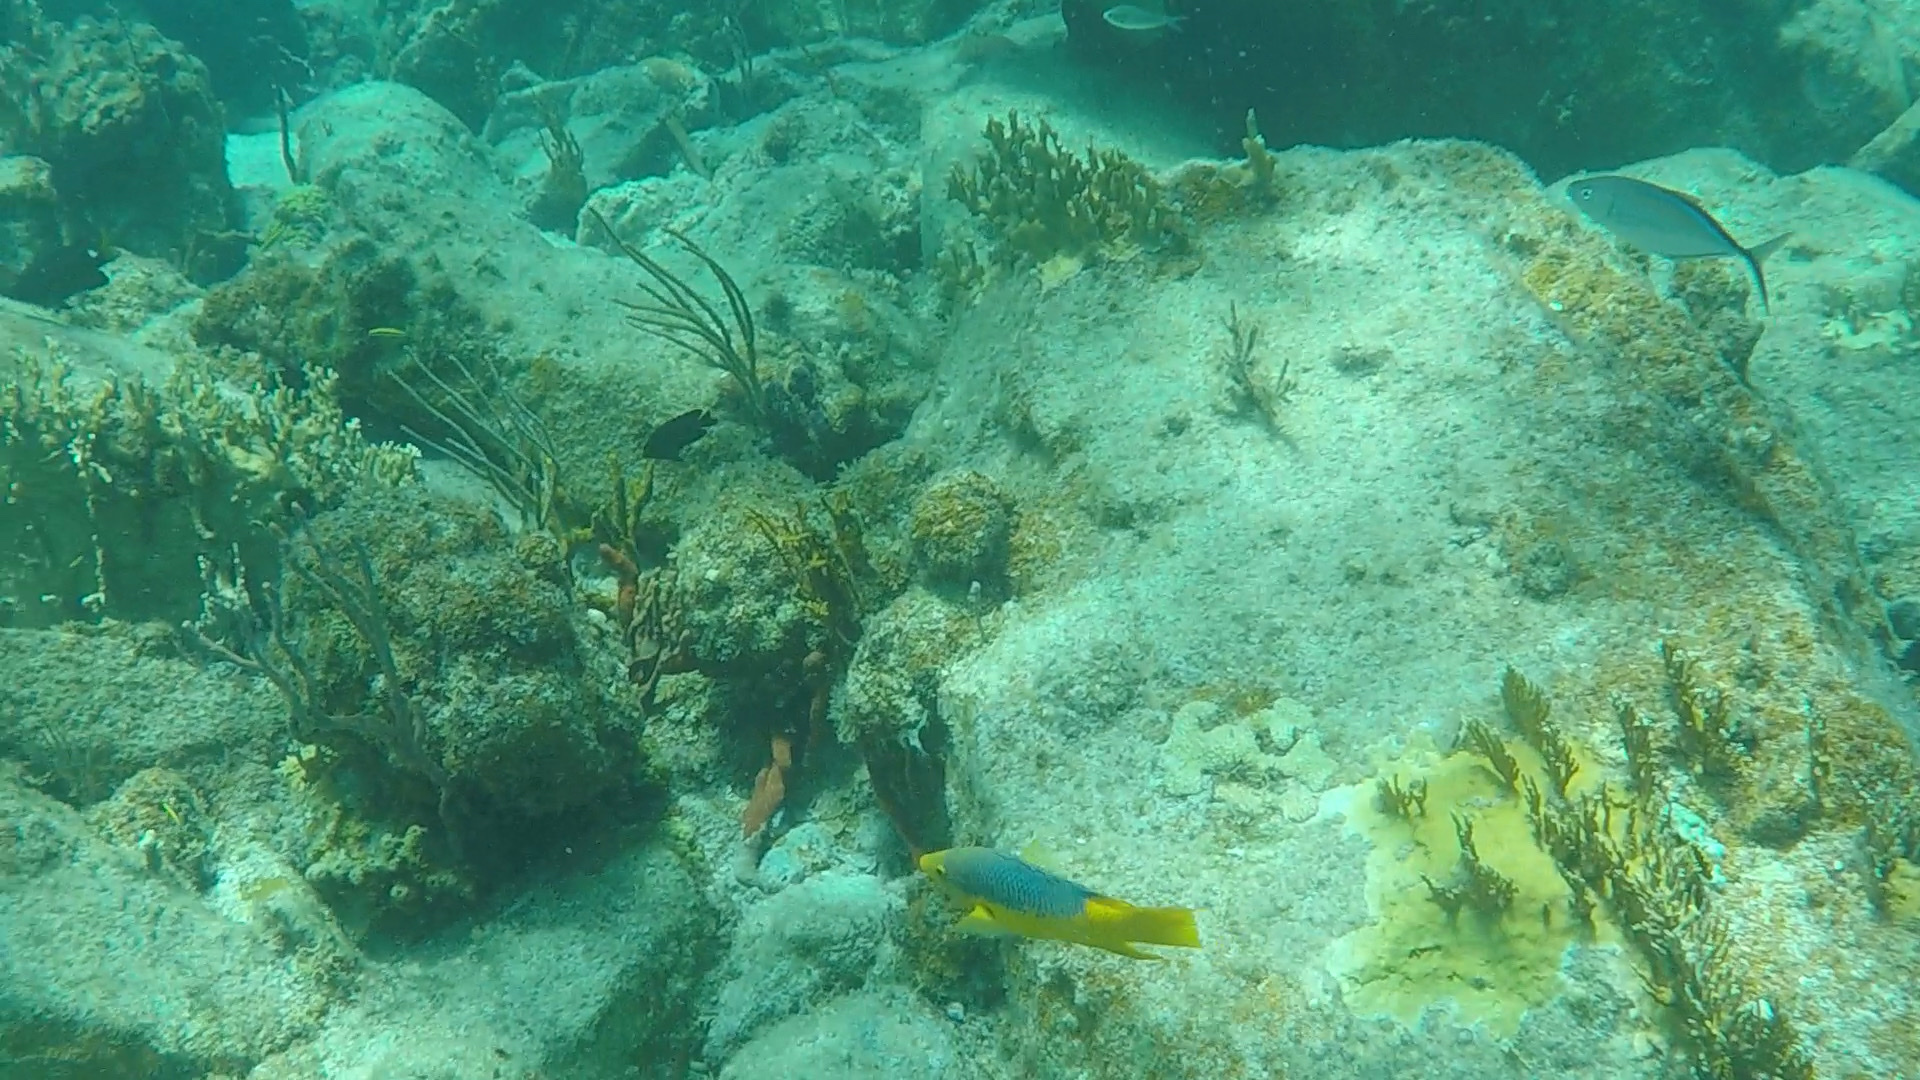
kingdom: Animalia
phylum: Chordata
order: Perciformes
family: Labridae
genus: Bodianus
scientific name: Bodianus rufus
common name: Spanish hogfish
